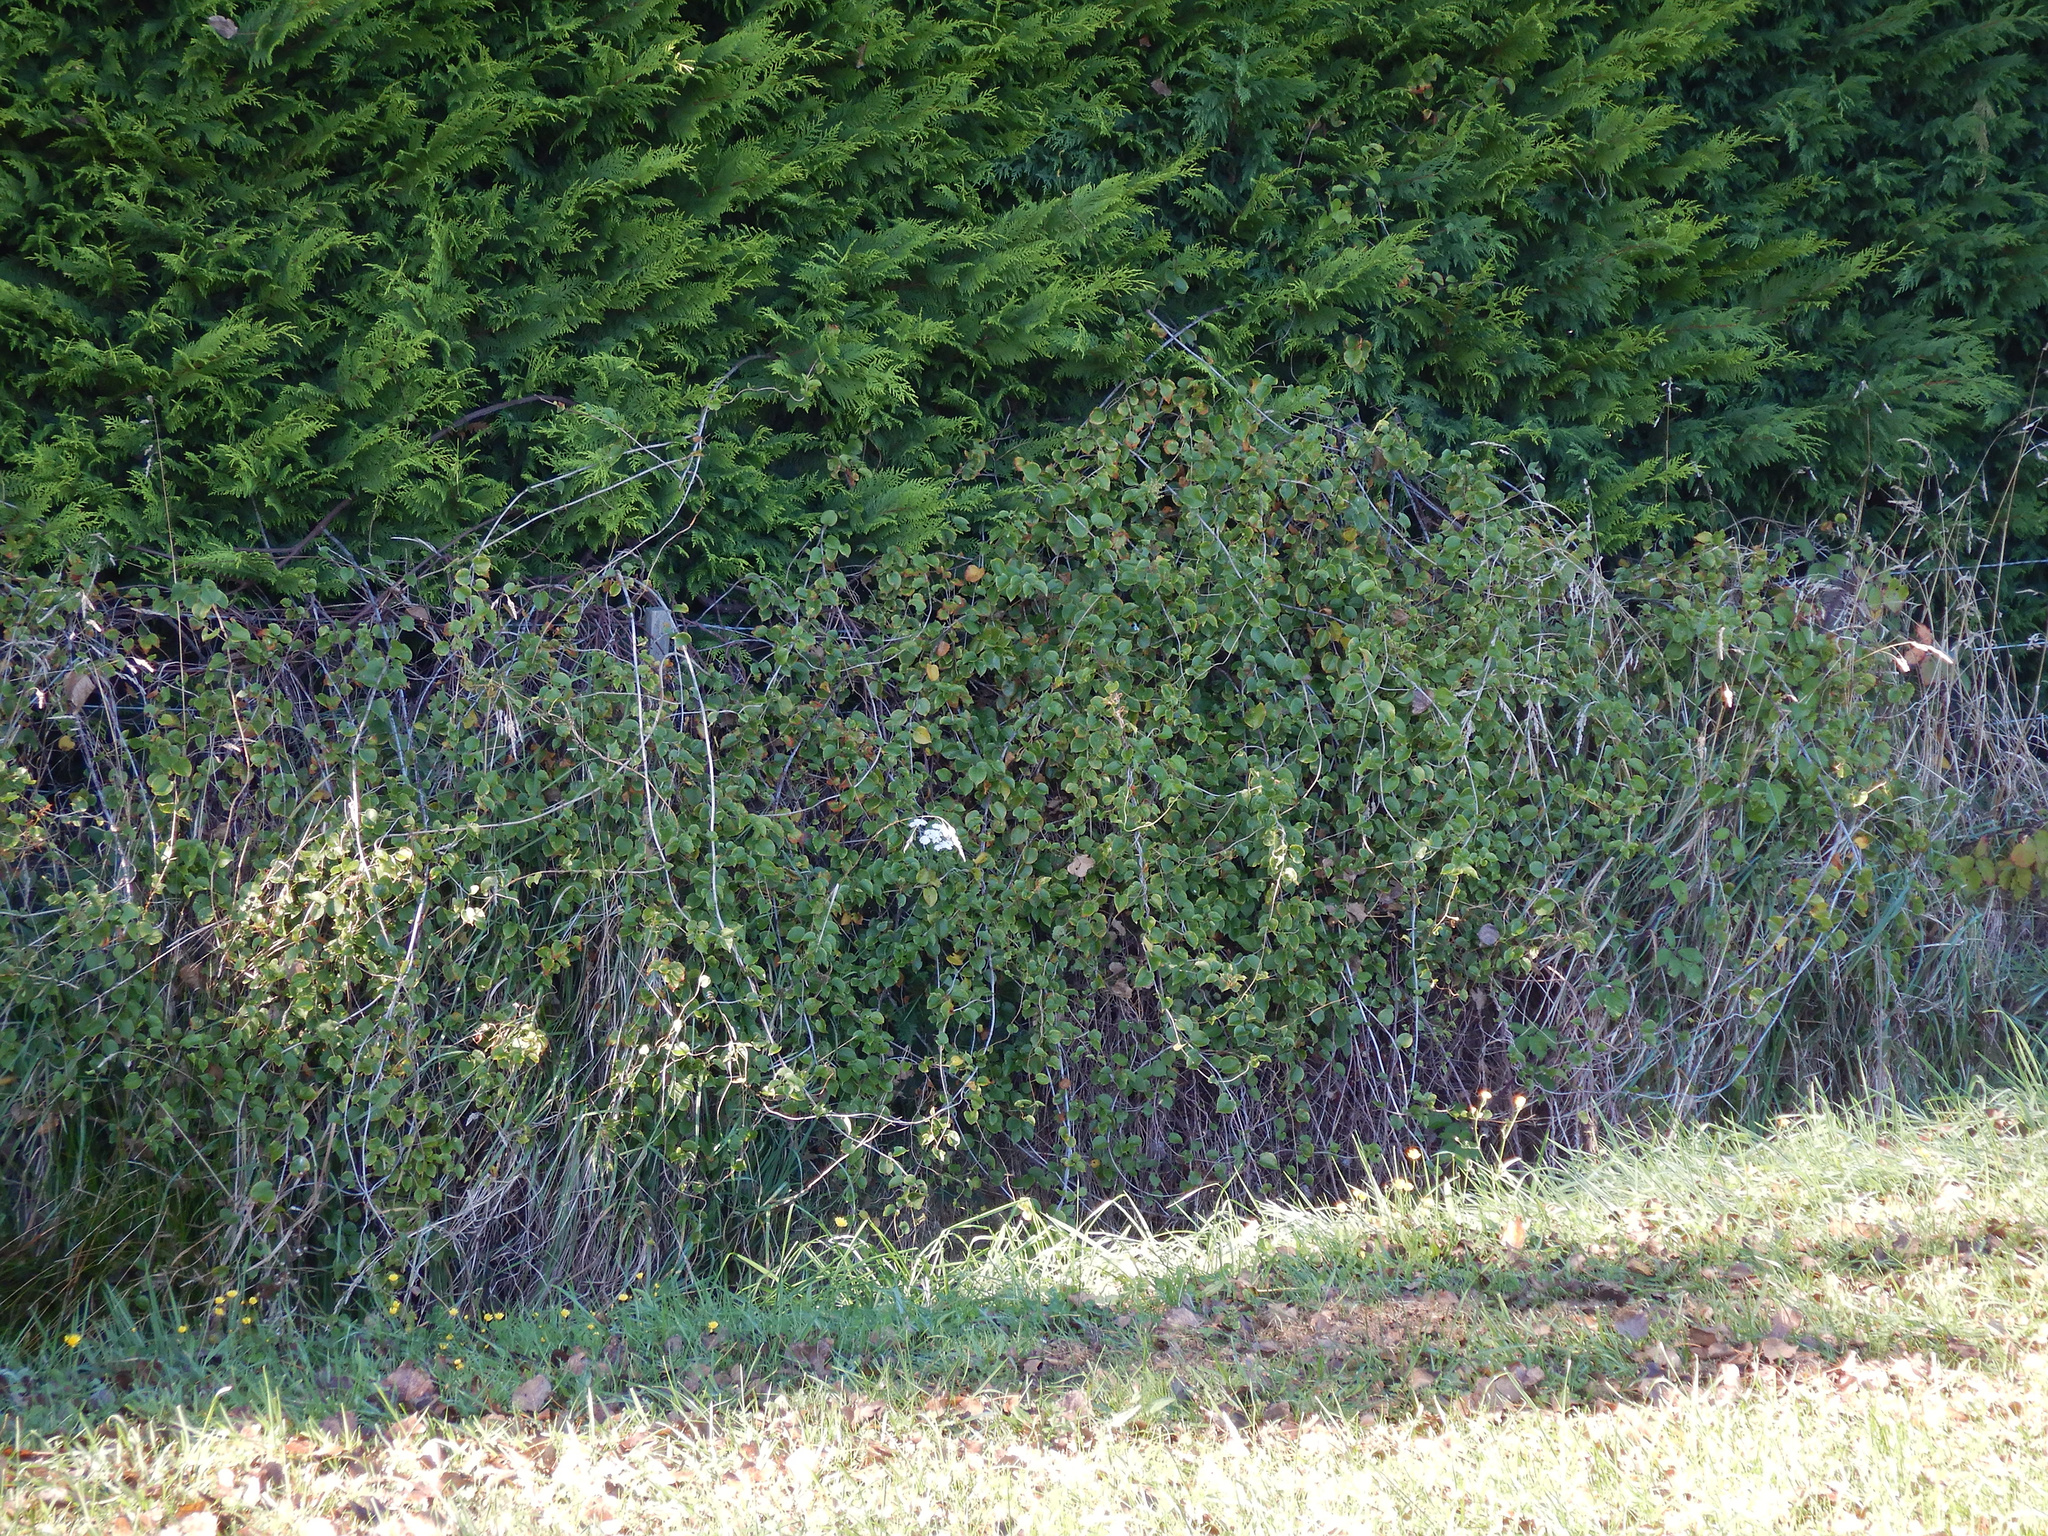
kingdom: Plantae
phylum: Tracheophyta
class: Magnoliopsida
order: Caryophyllales
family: Polygonaceae
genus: Muehlenbeckia
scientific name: Muehlenbeckia australis
